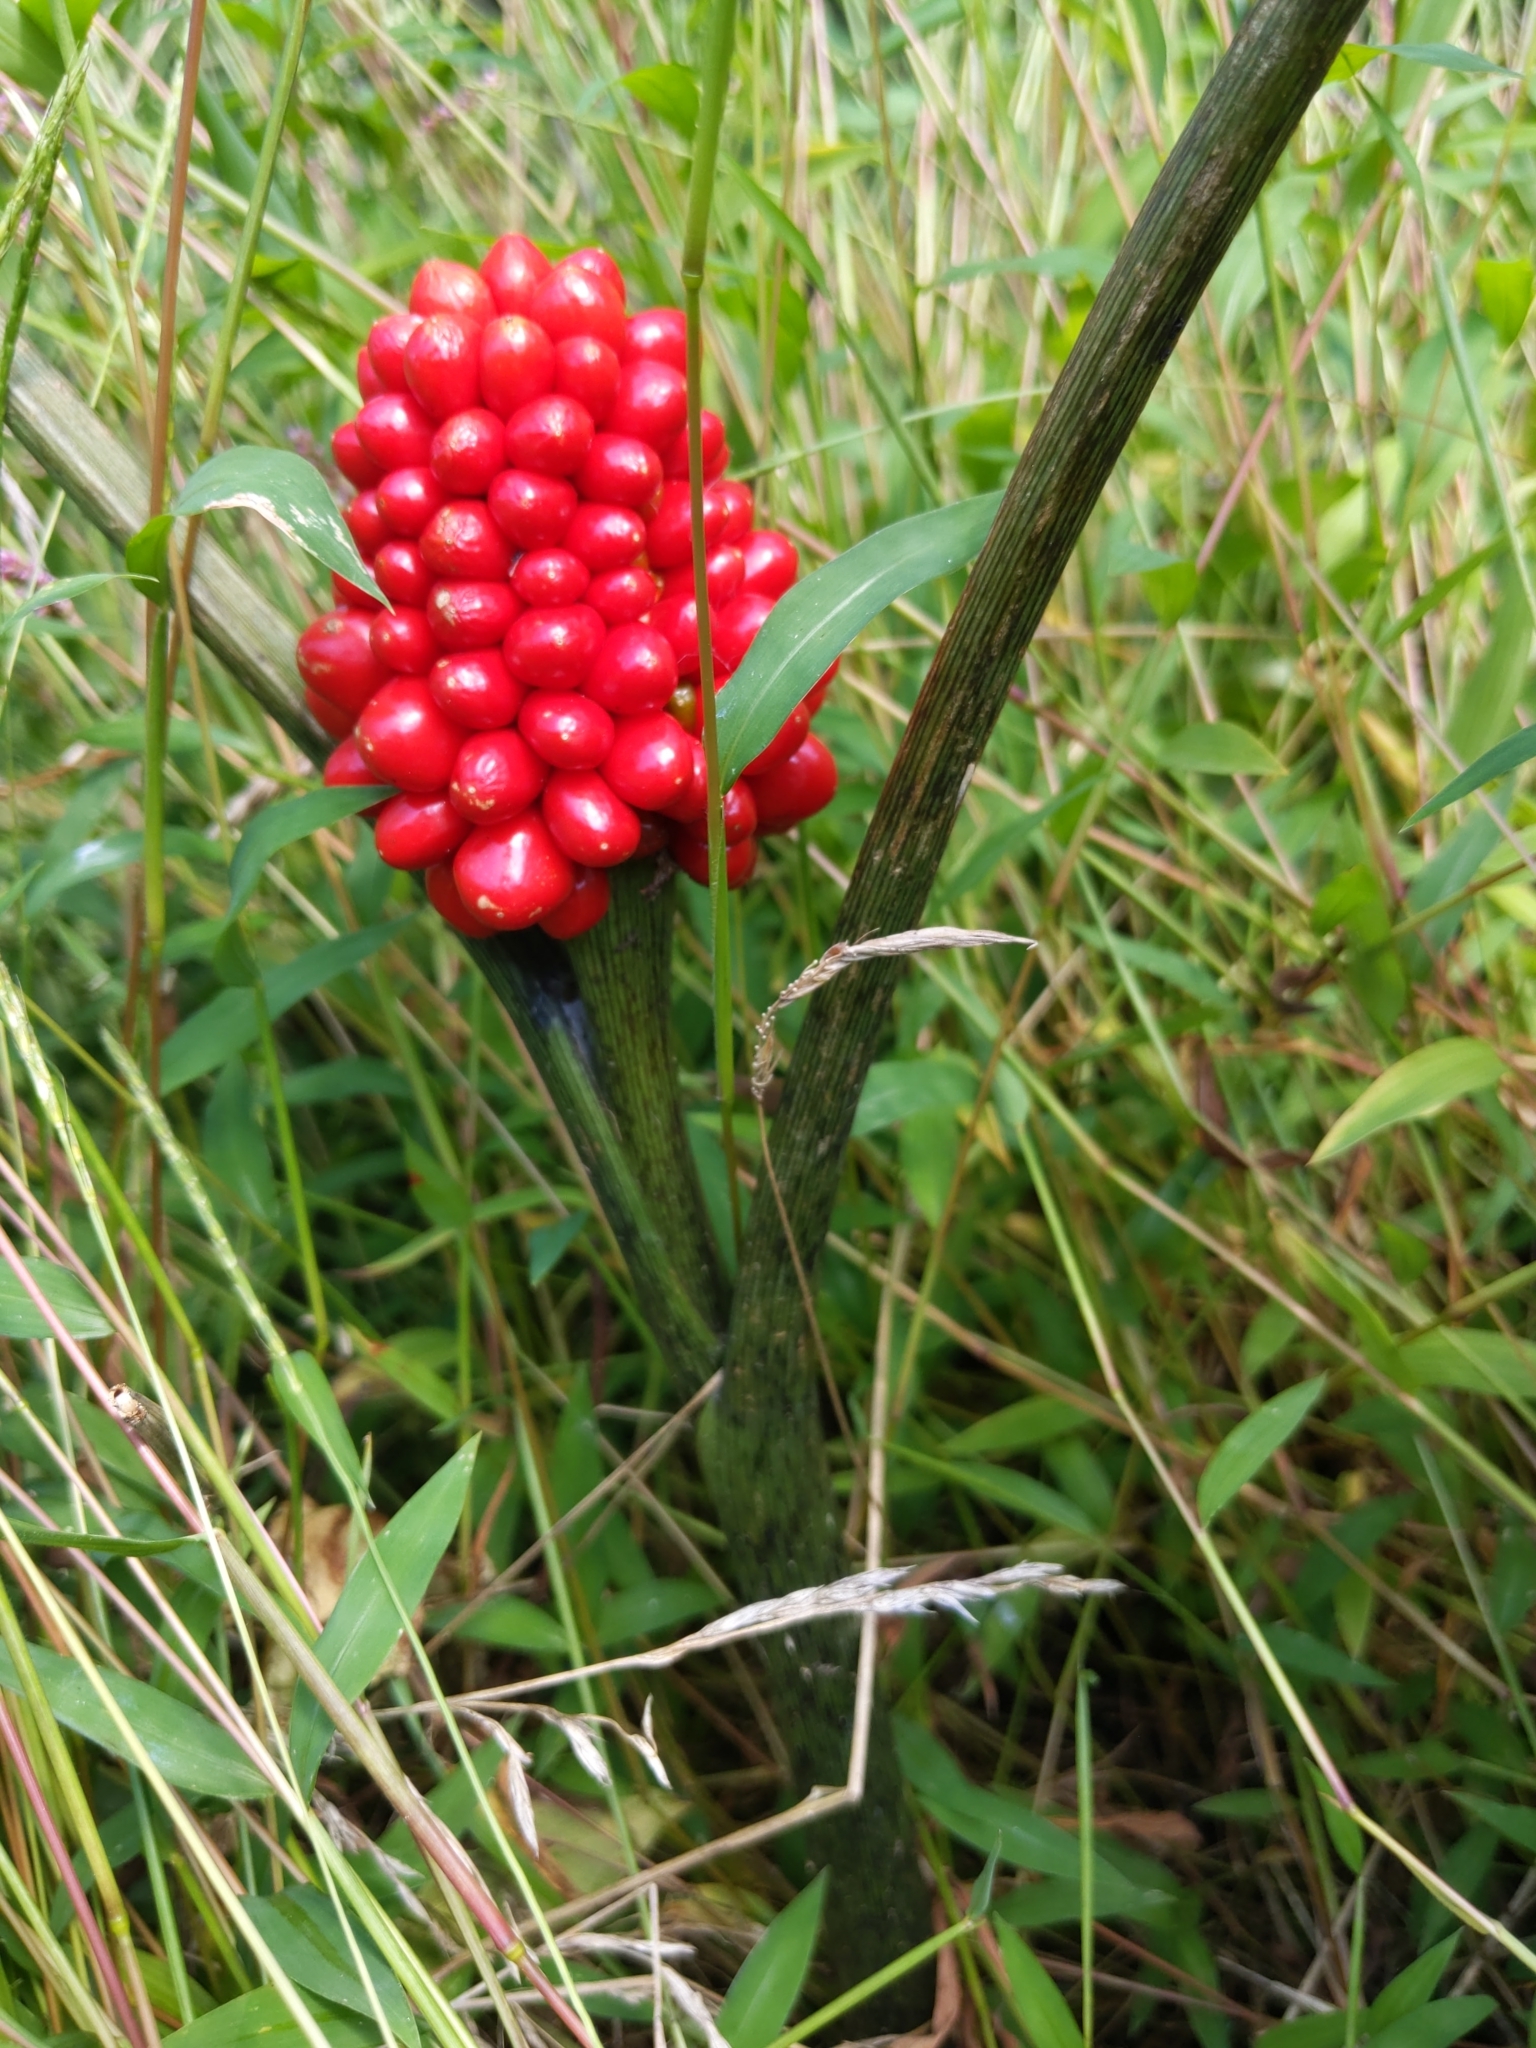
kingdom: Plantae
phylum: Tracheophyta
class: Liliopsida
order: Alismatales
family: Araceae
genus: Arisaema
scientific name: Arisaema triphyllum
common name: Jack-in-the-pulpit
